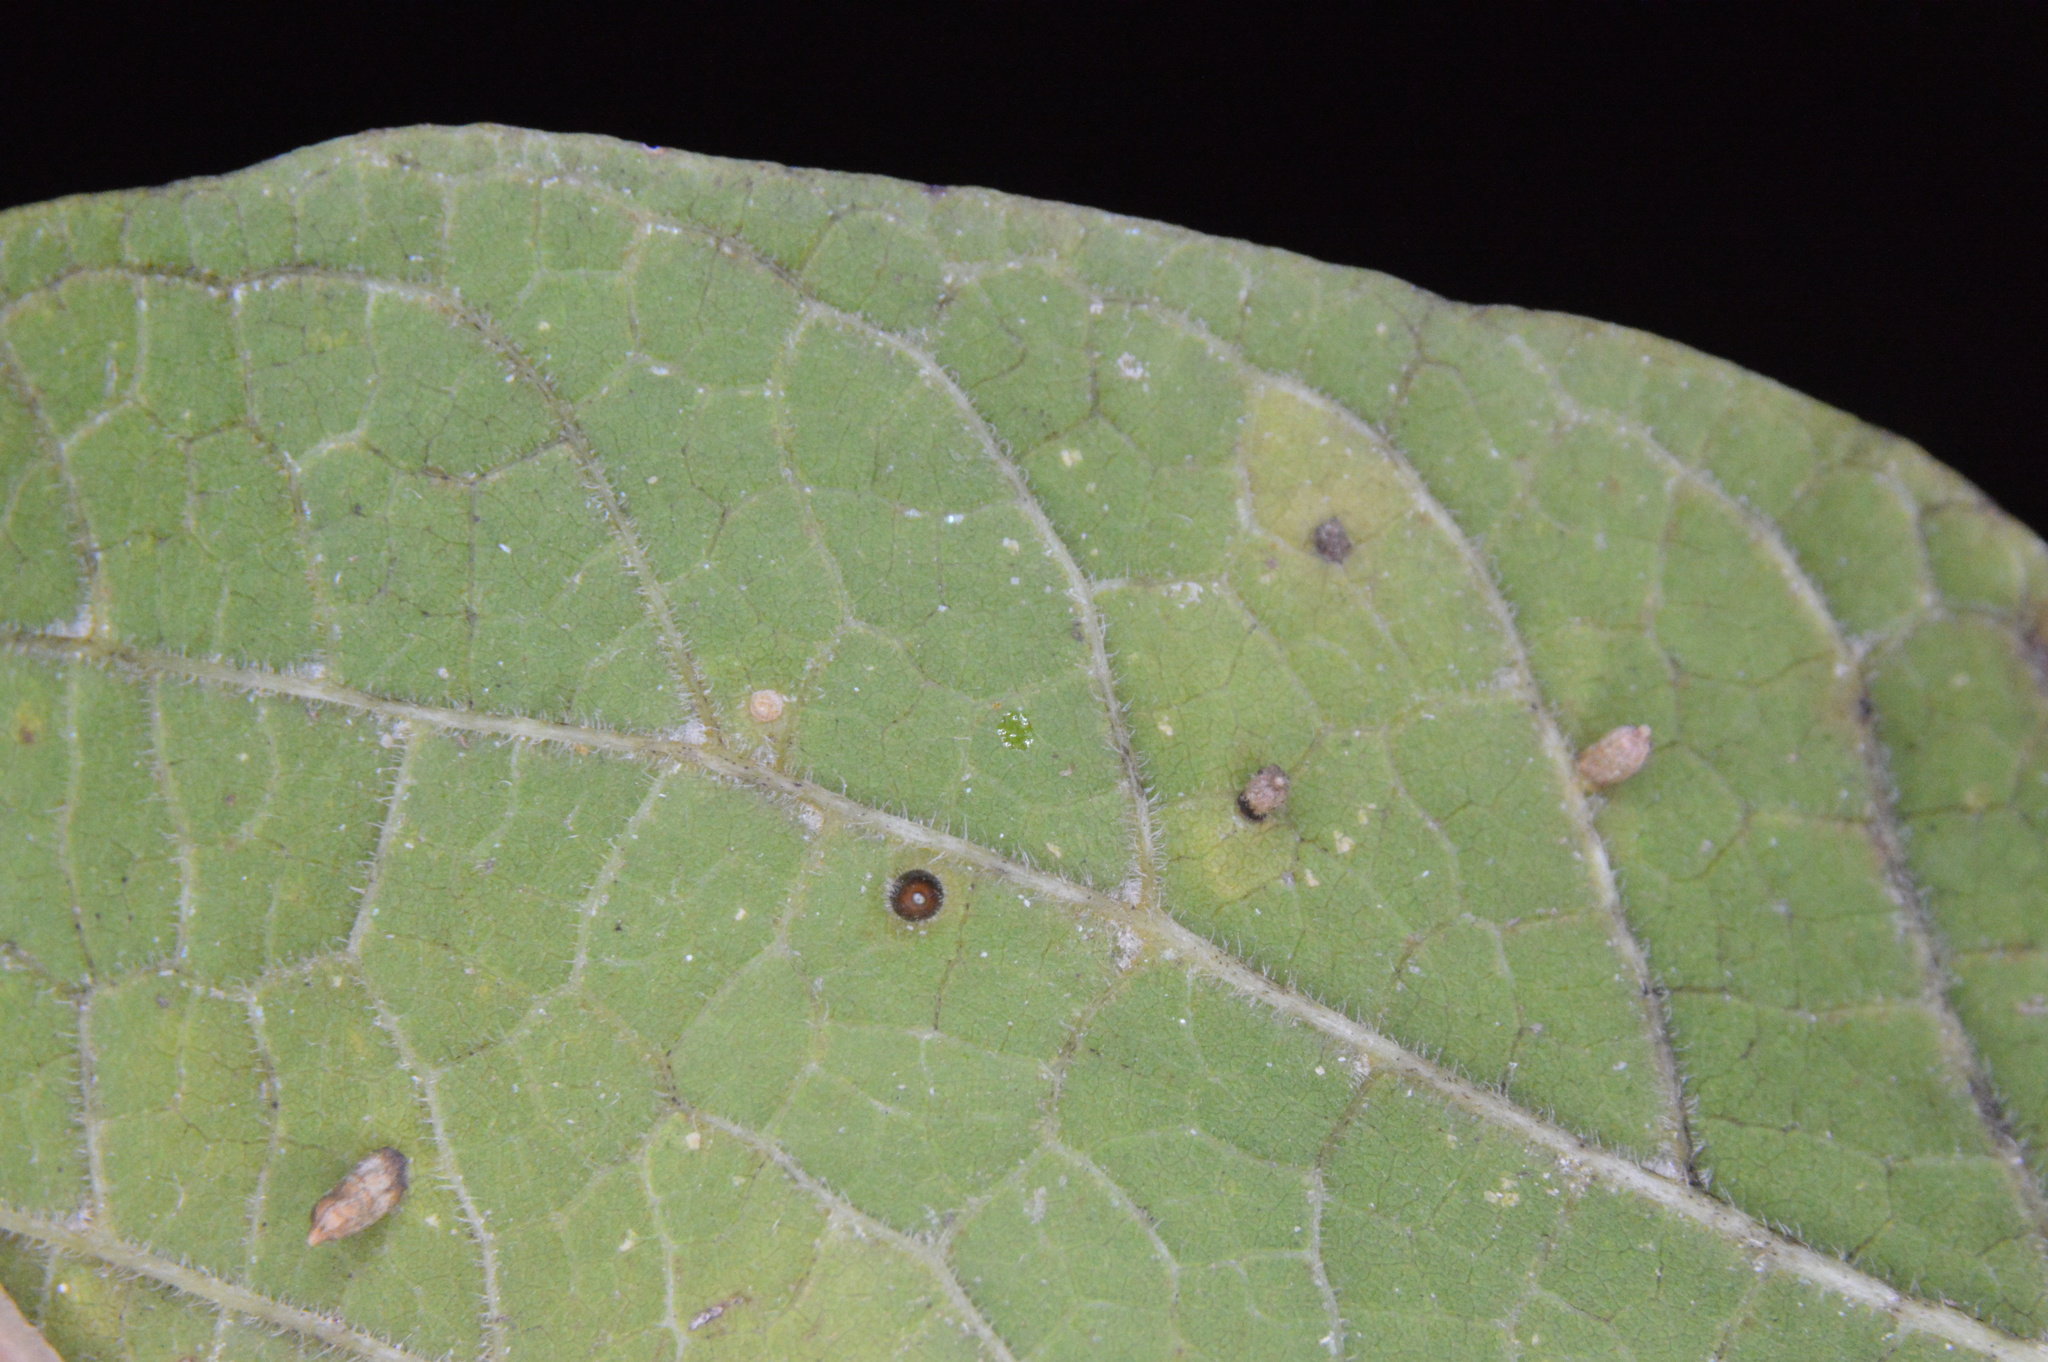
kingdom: Animalia
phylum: Arthropoda
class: Insecta
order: Diptera
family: Cecidomyiidae
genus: Celticecis
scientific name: Celticecis cupiformis
